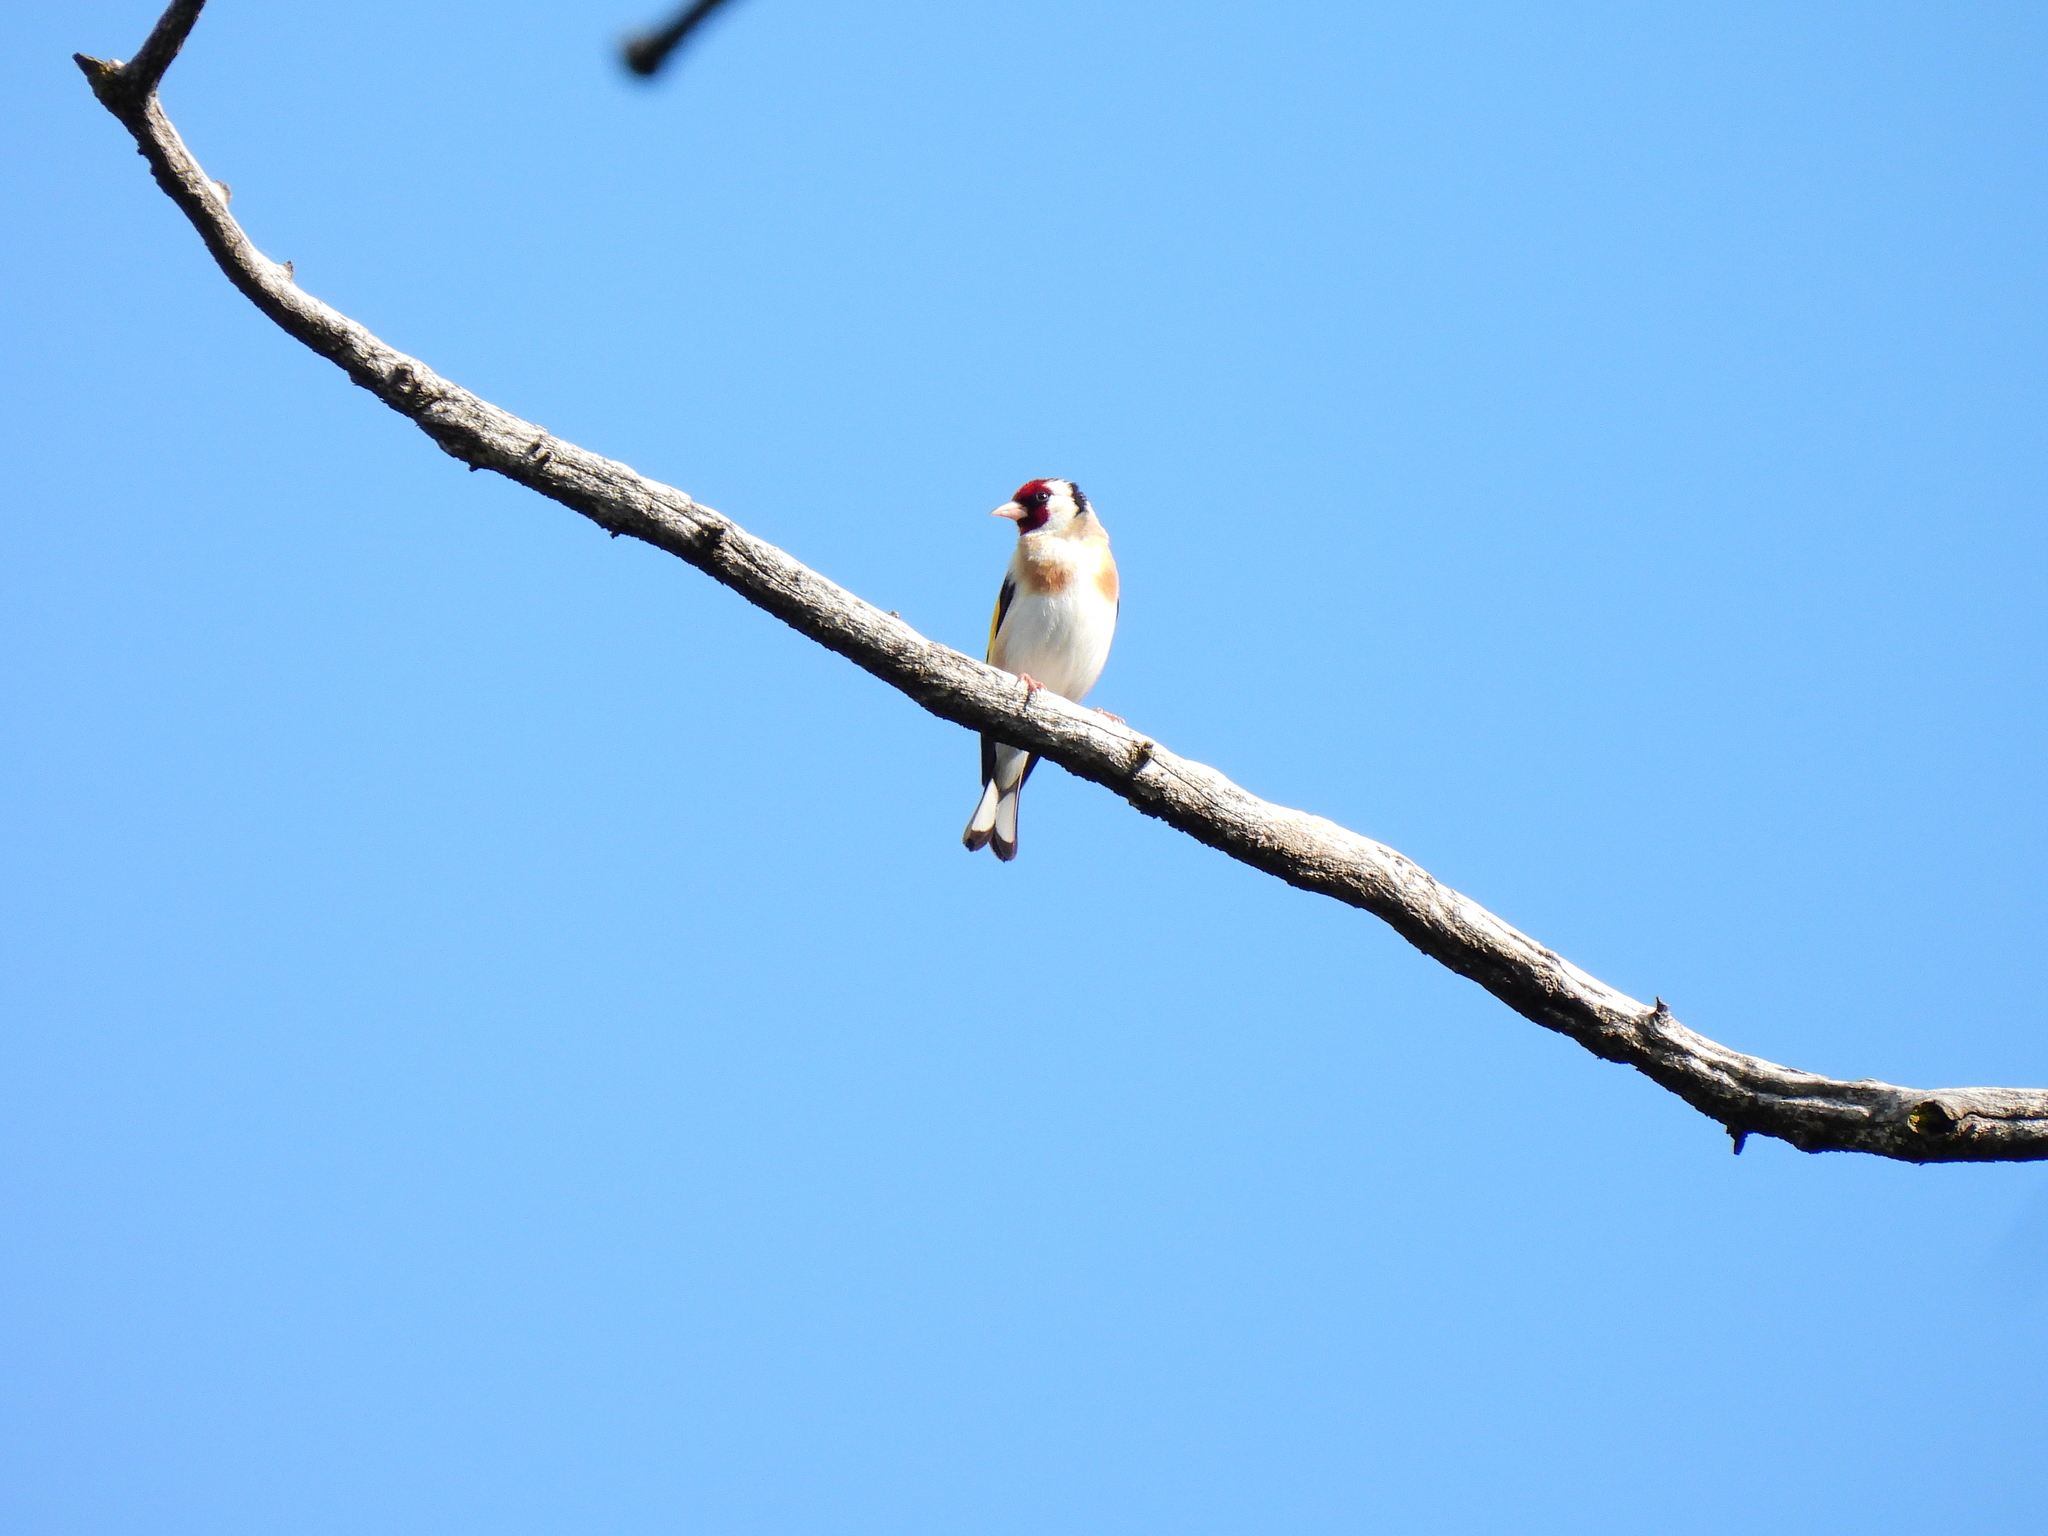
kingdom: Animalia
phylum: Chordata
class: Aves
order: Passeriformes
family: Fringillidae
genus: Carduelis
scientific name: Carduelis carduelis
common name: European goldfinch
